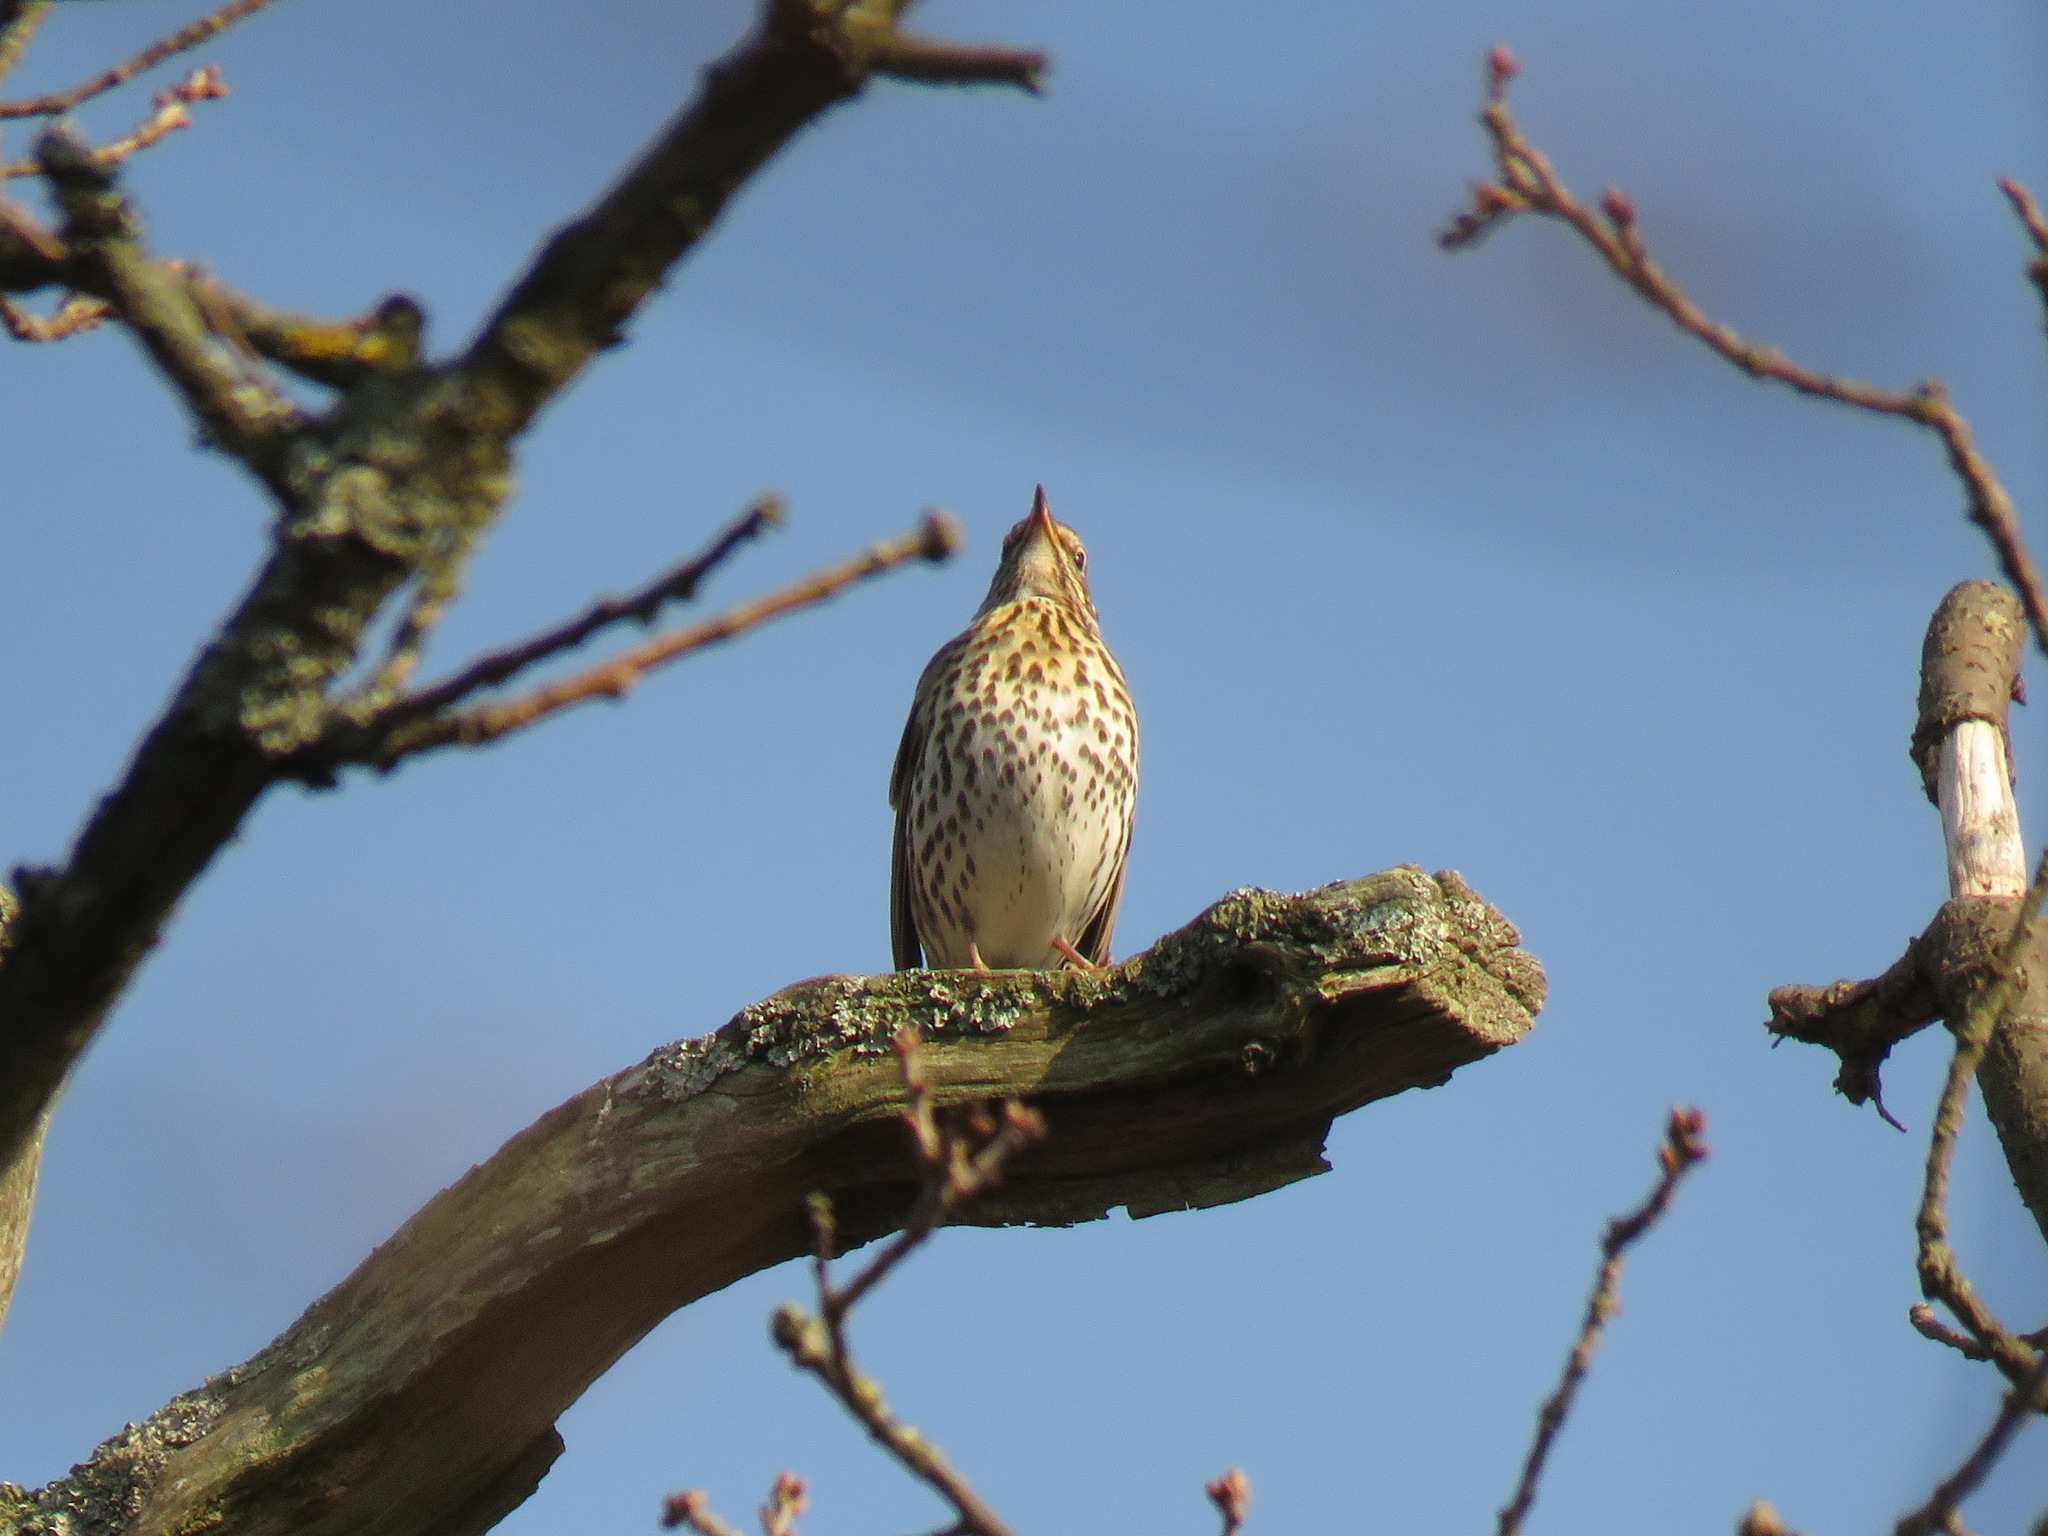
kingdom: Animalia
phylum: Chordata
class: Aves
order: Passeriformes
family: Turdidae
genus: Turdus
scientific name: Turdus philomelos
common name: Song thrush
